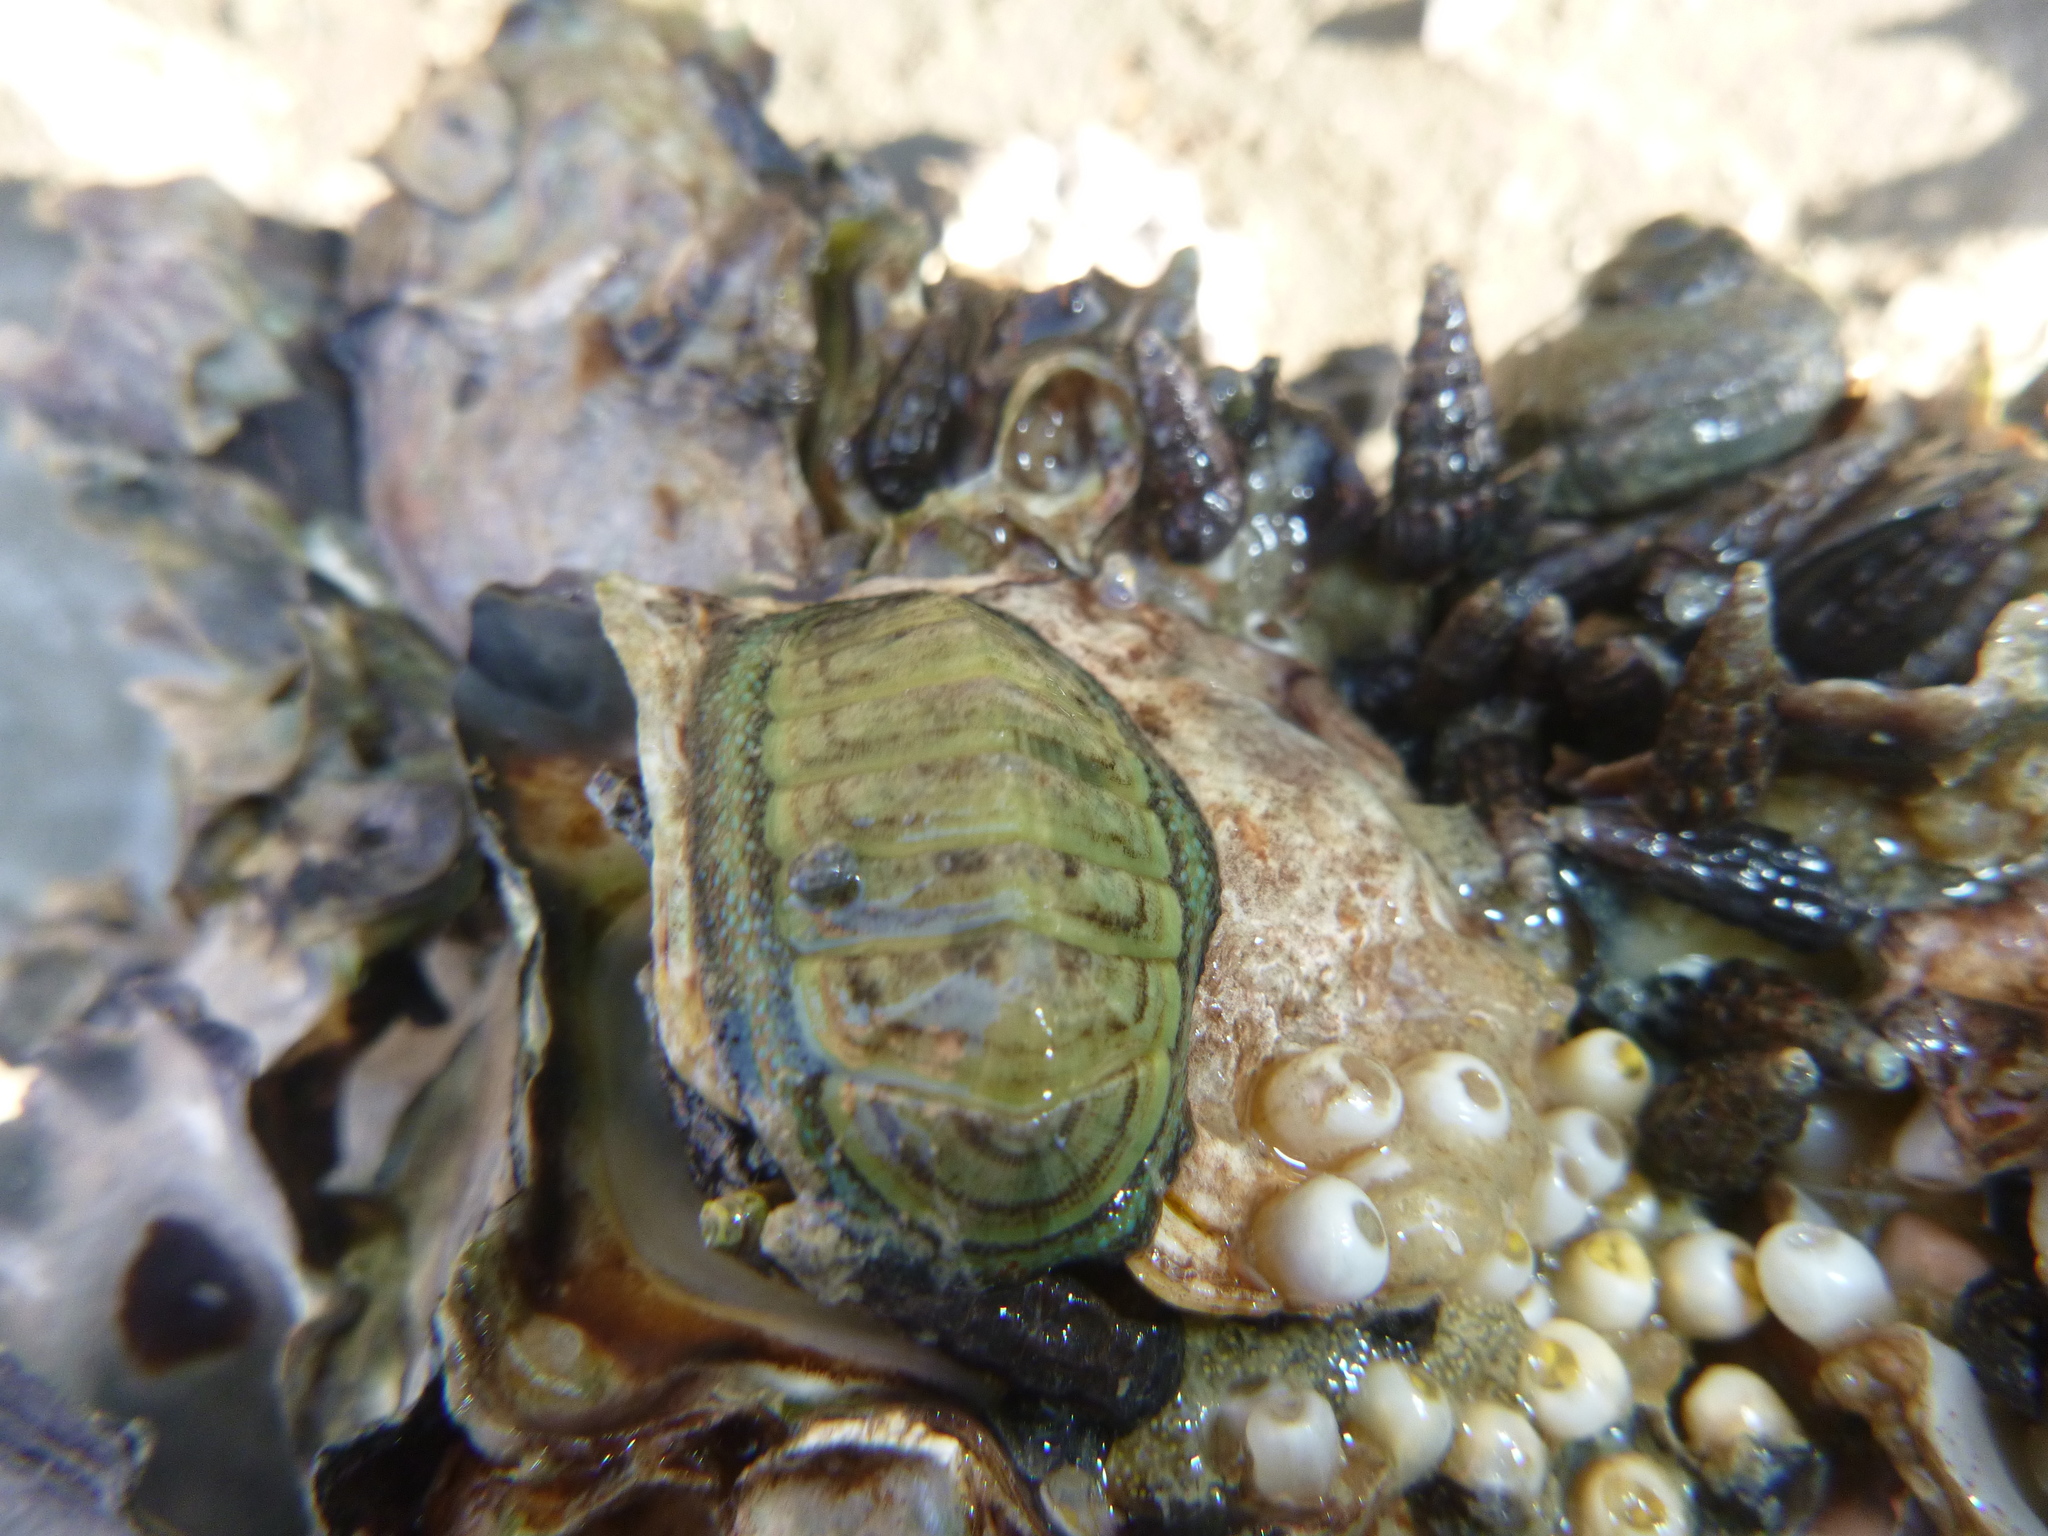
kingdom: Animalia
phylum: Mollusca
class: Polyplacophora
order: Chitonida
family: Chitonidae
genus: Chiton
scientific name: Chiton glaucus
